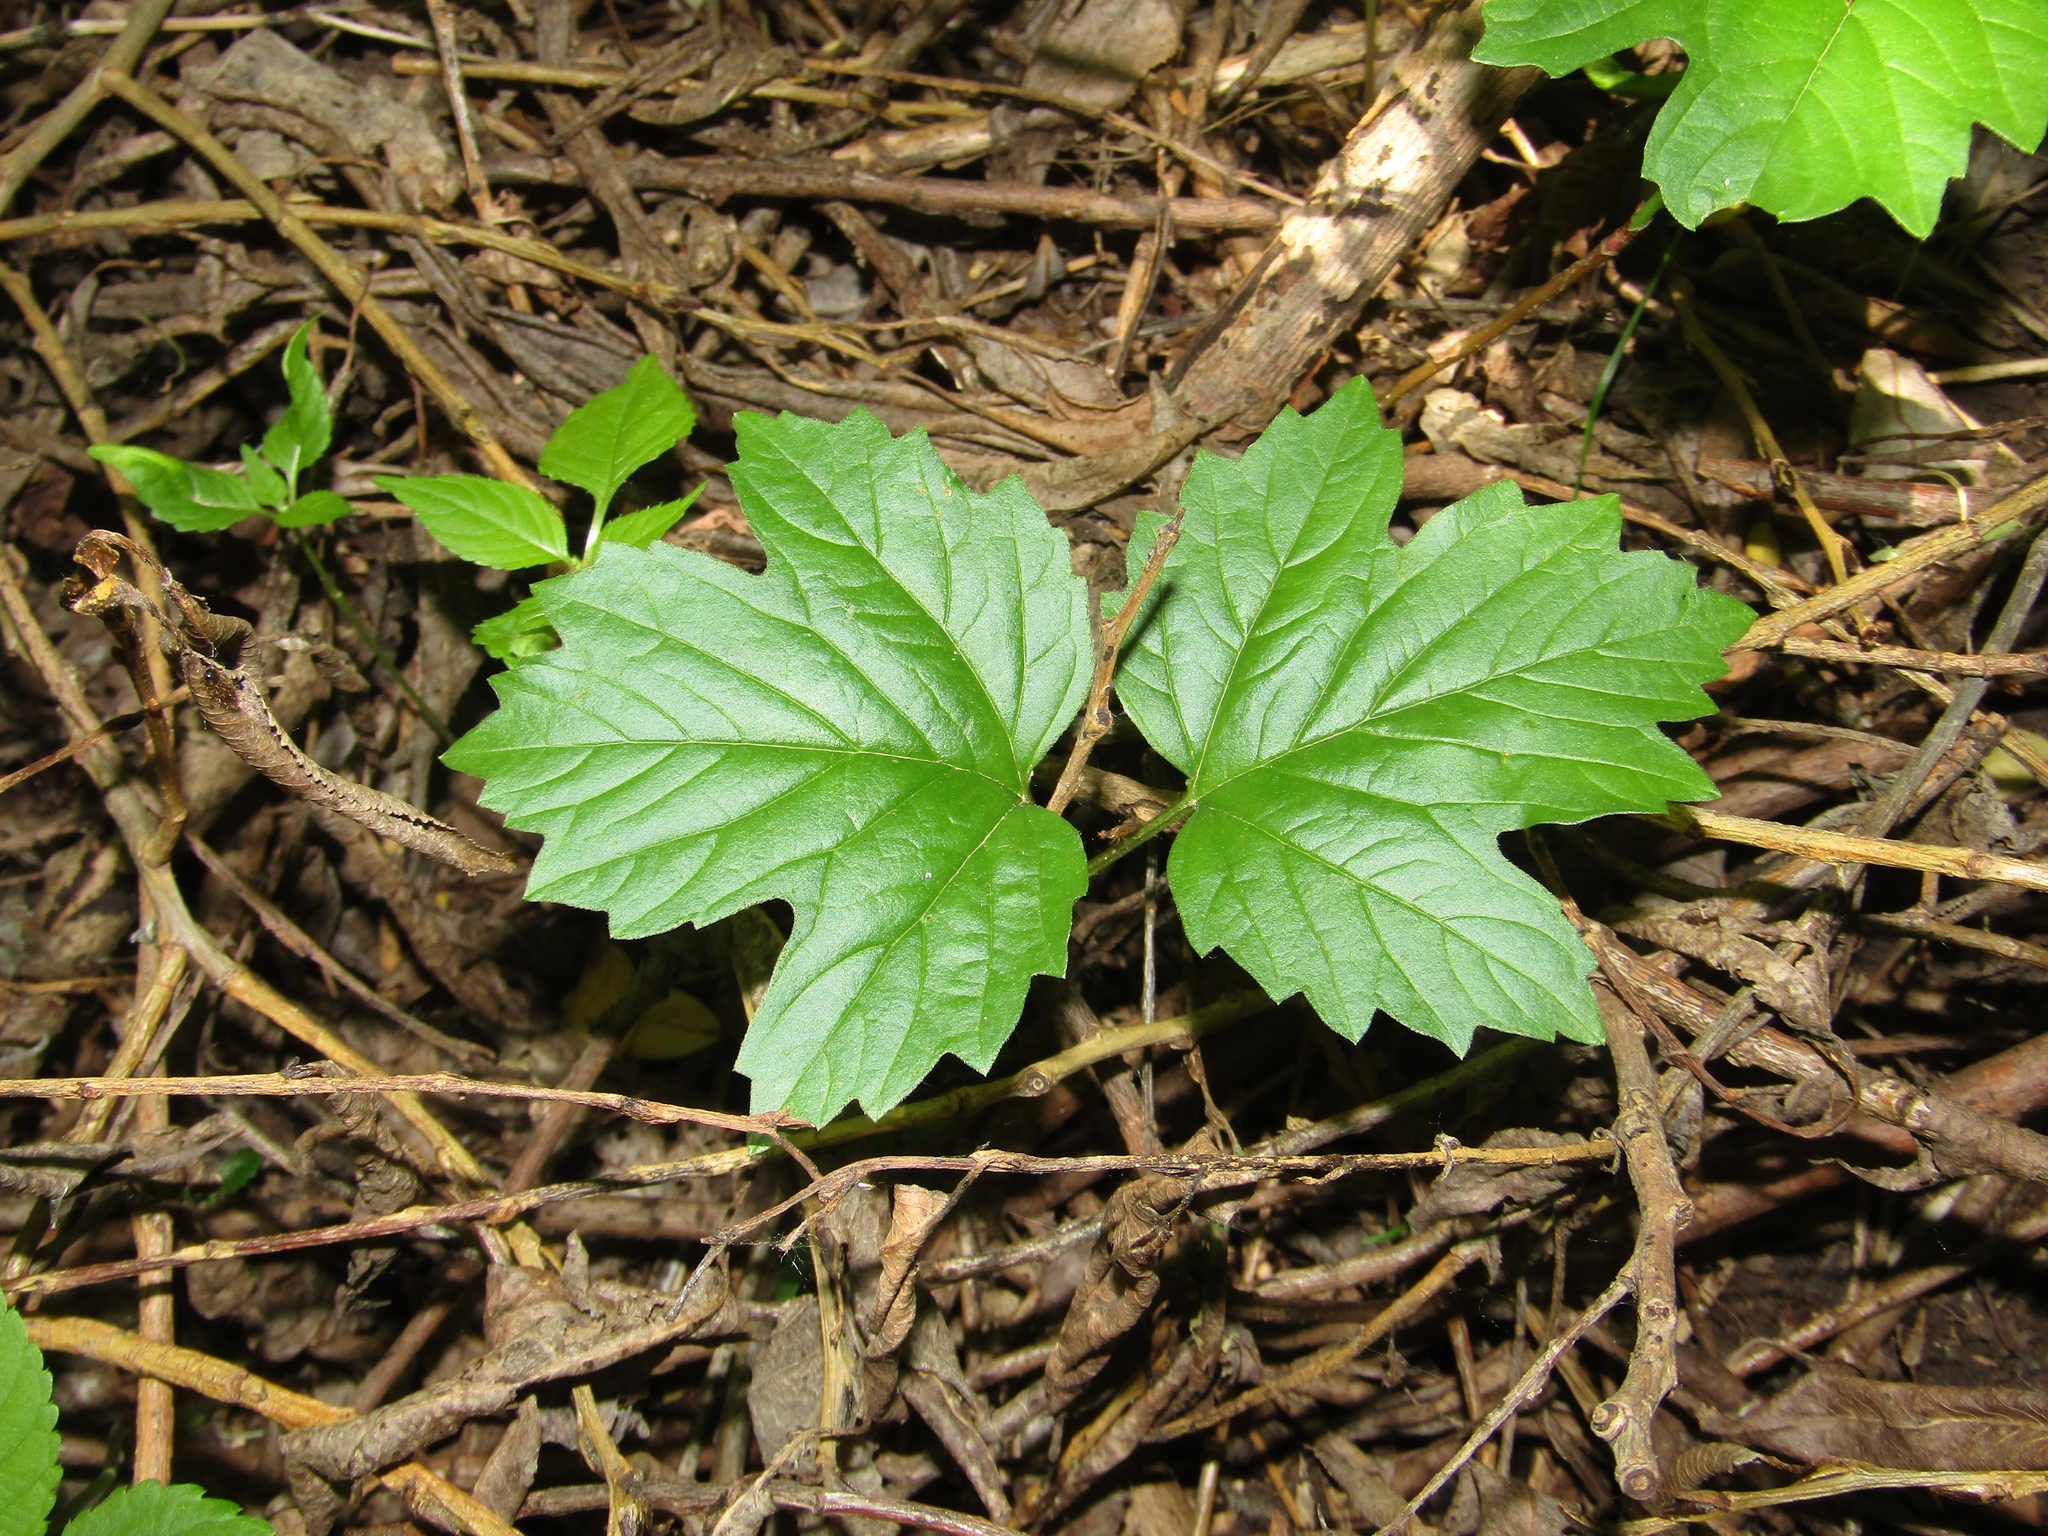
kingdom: Plantae
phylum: Tracheophyta
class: Magnoliopsida
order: Dipsacales
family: Viburnaceae
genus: Viburnum
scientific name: Viburnum opulus
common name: Guelder-rose
